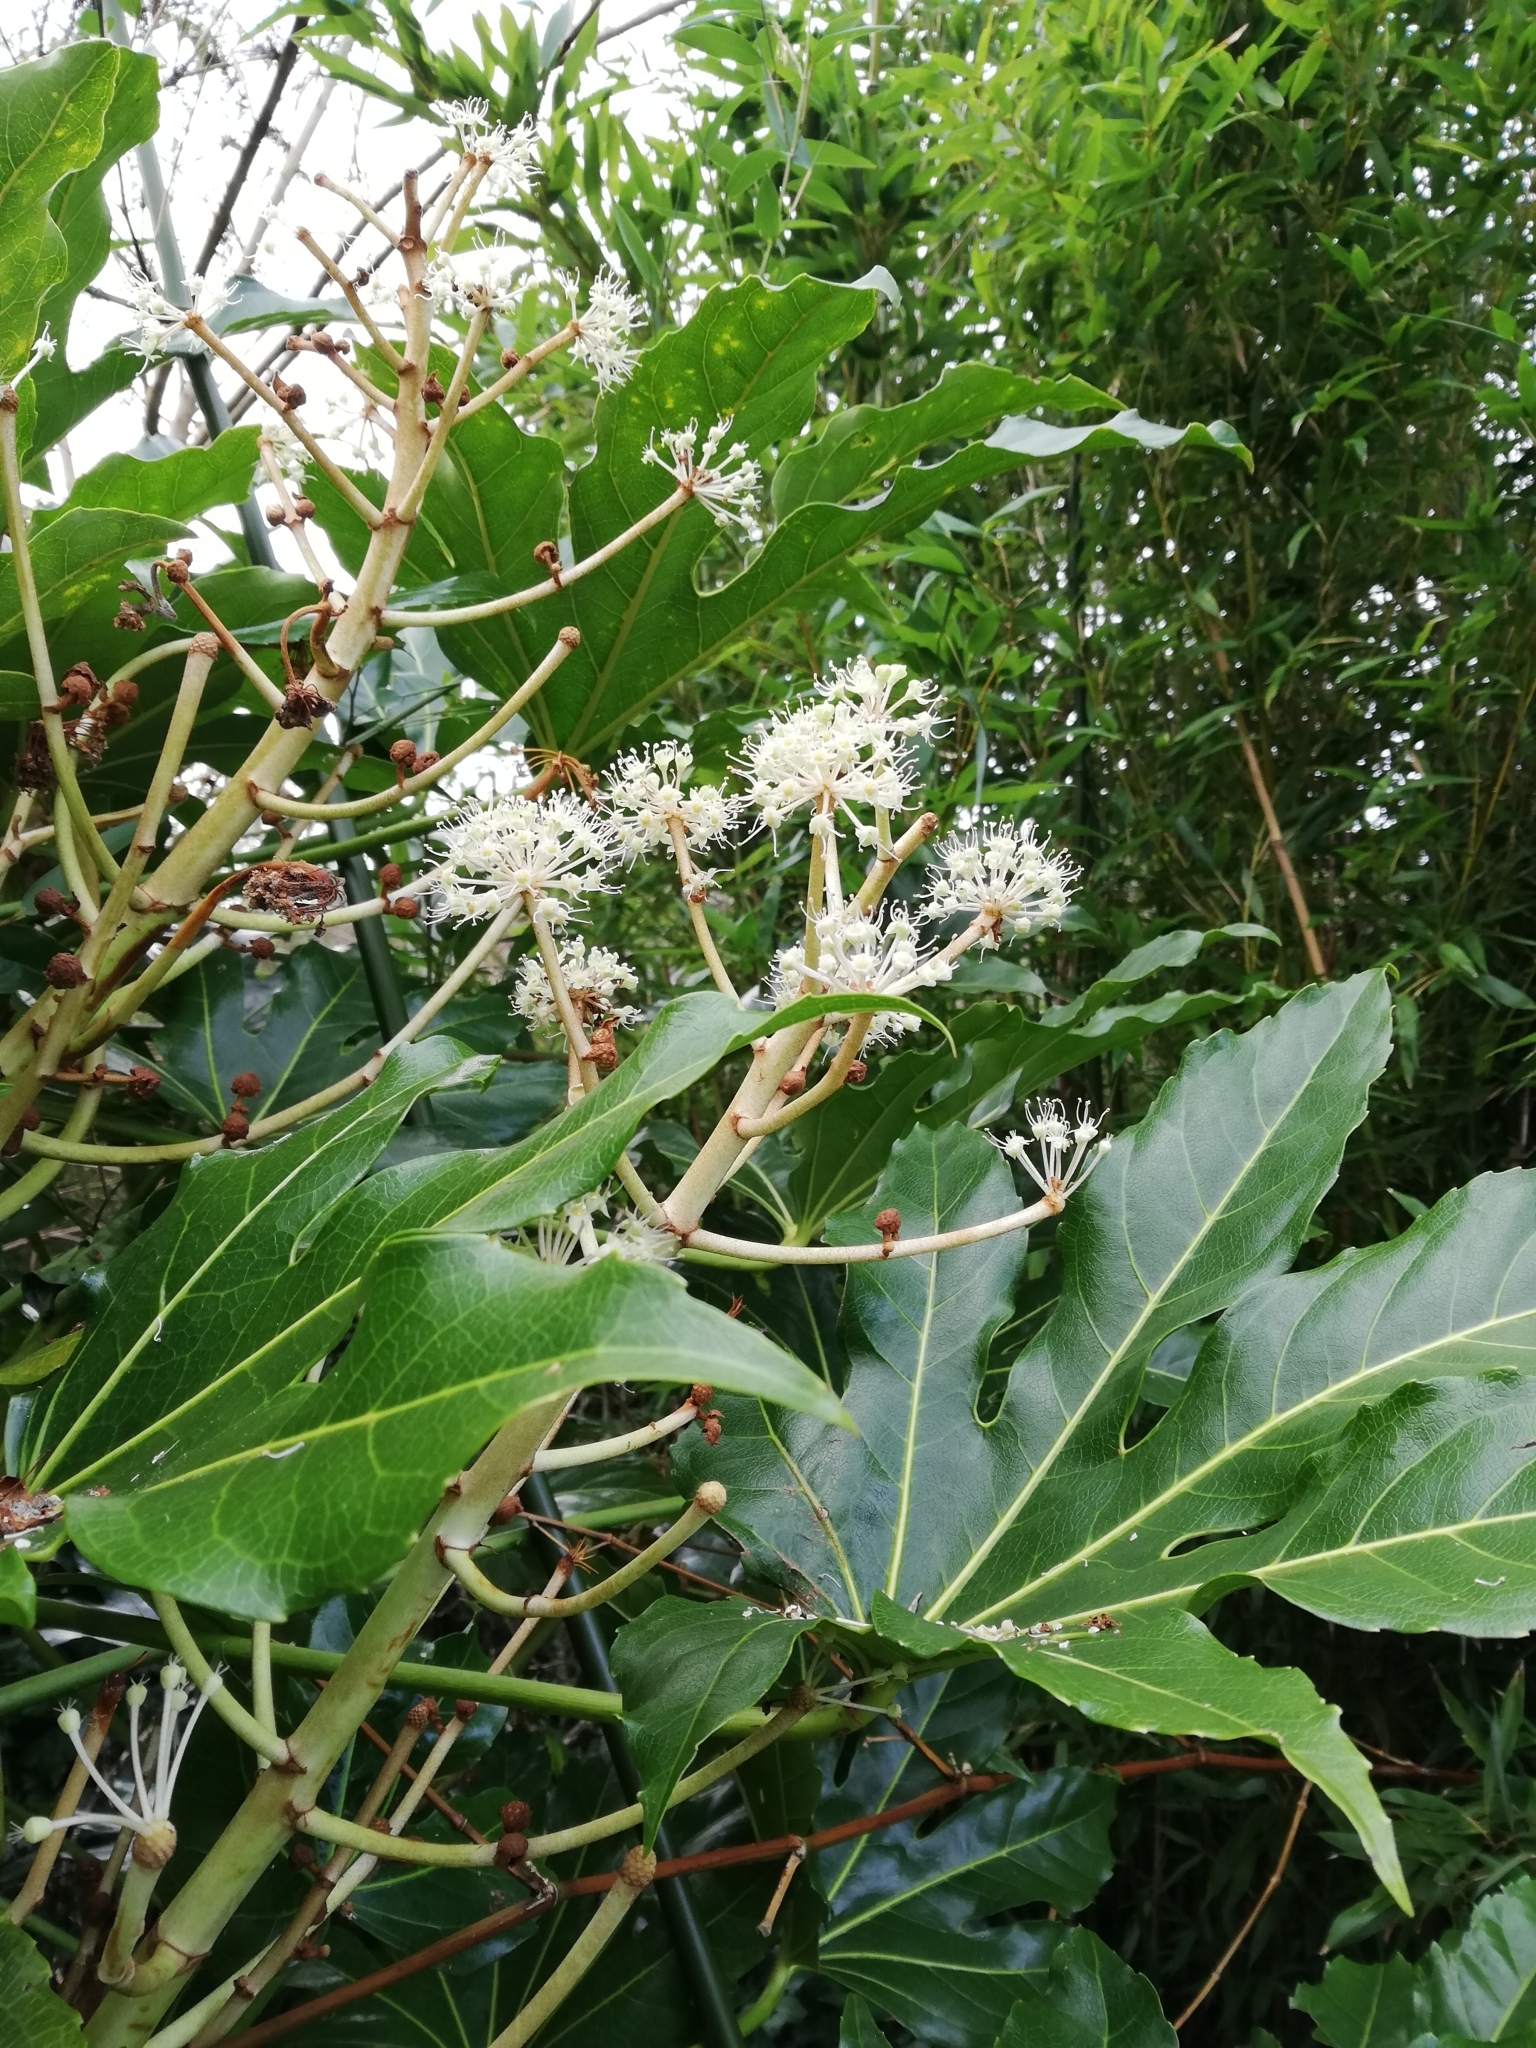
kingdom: Plantae
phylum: Tracheophyta
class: Magnoliopsida
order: Apiales
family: Araliaceae
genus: Fatsia
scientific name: Fatsia japonica
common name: Fatsia
